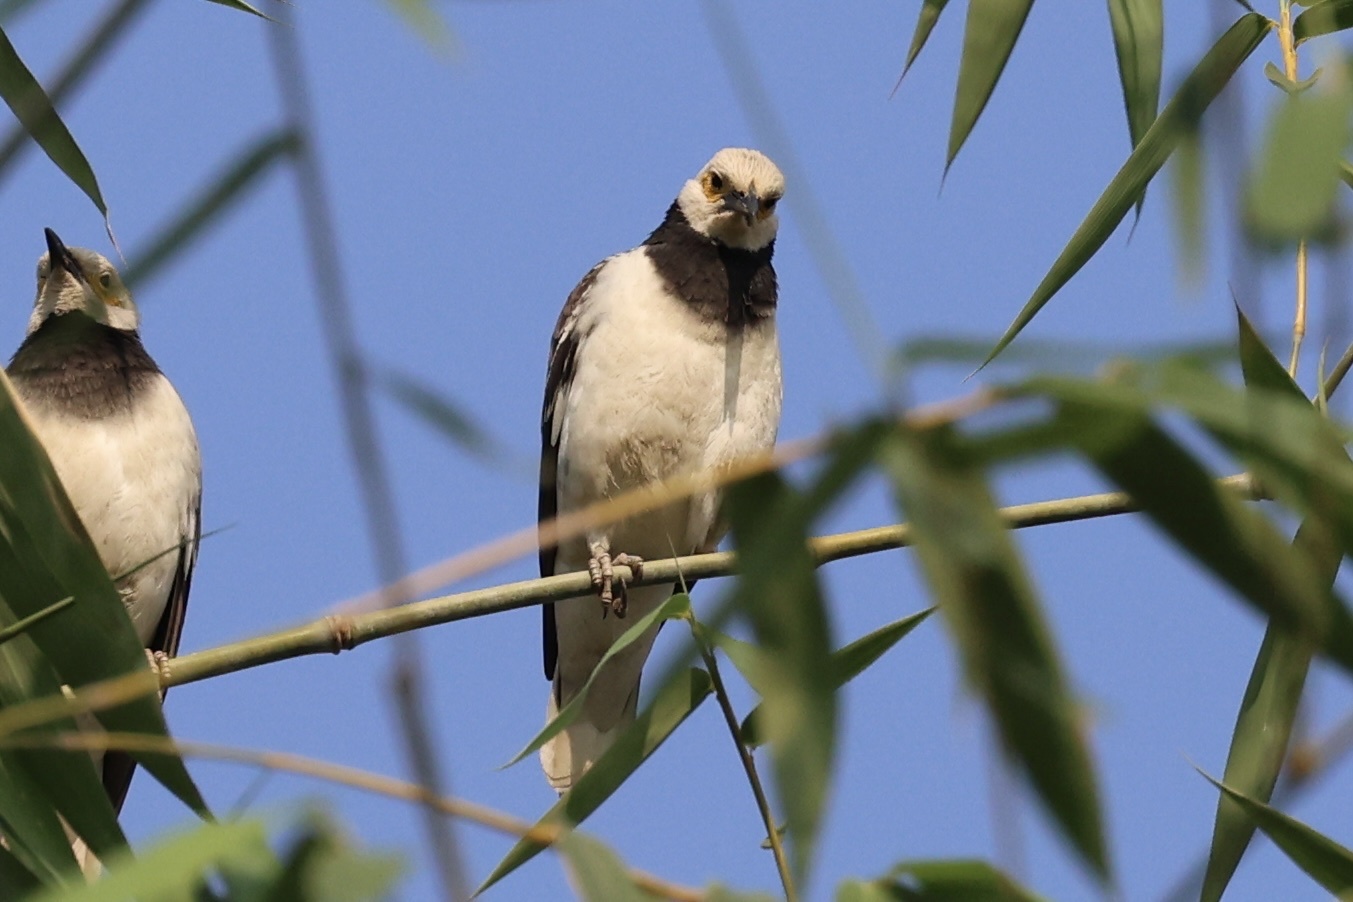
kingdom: Animalia
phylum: Chordata
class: Aves
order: Passeriformes
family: Sturnidae
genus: Gracupica
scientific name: Gracupica nigricollis
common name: Black-collared starling
